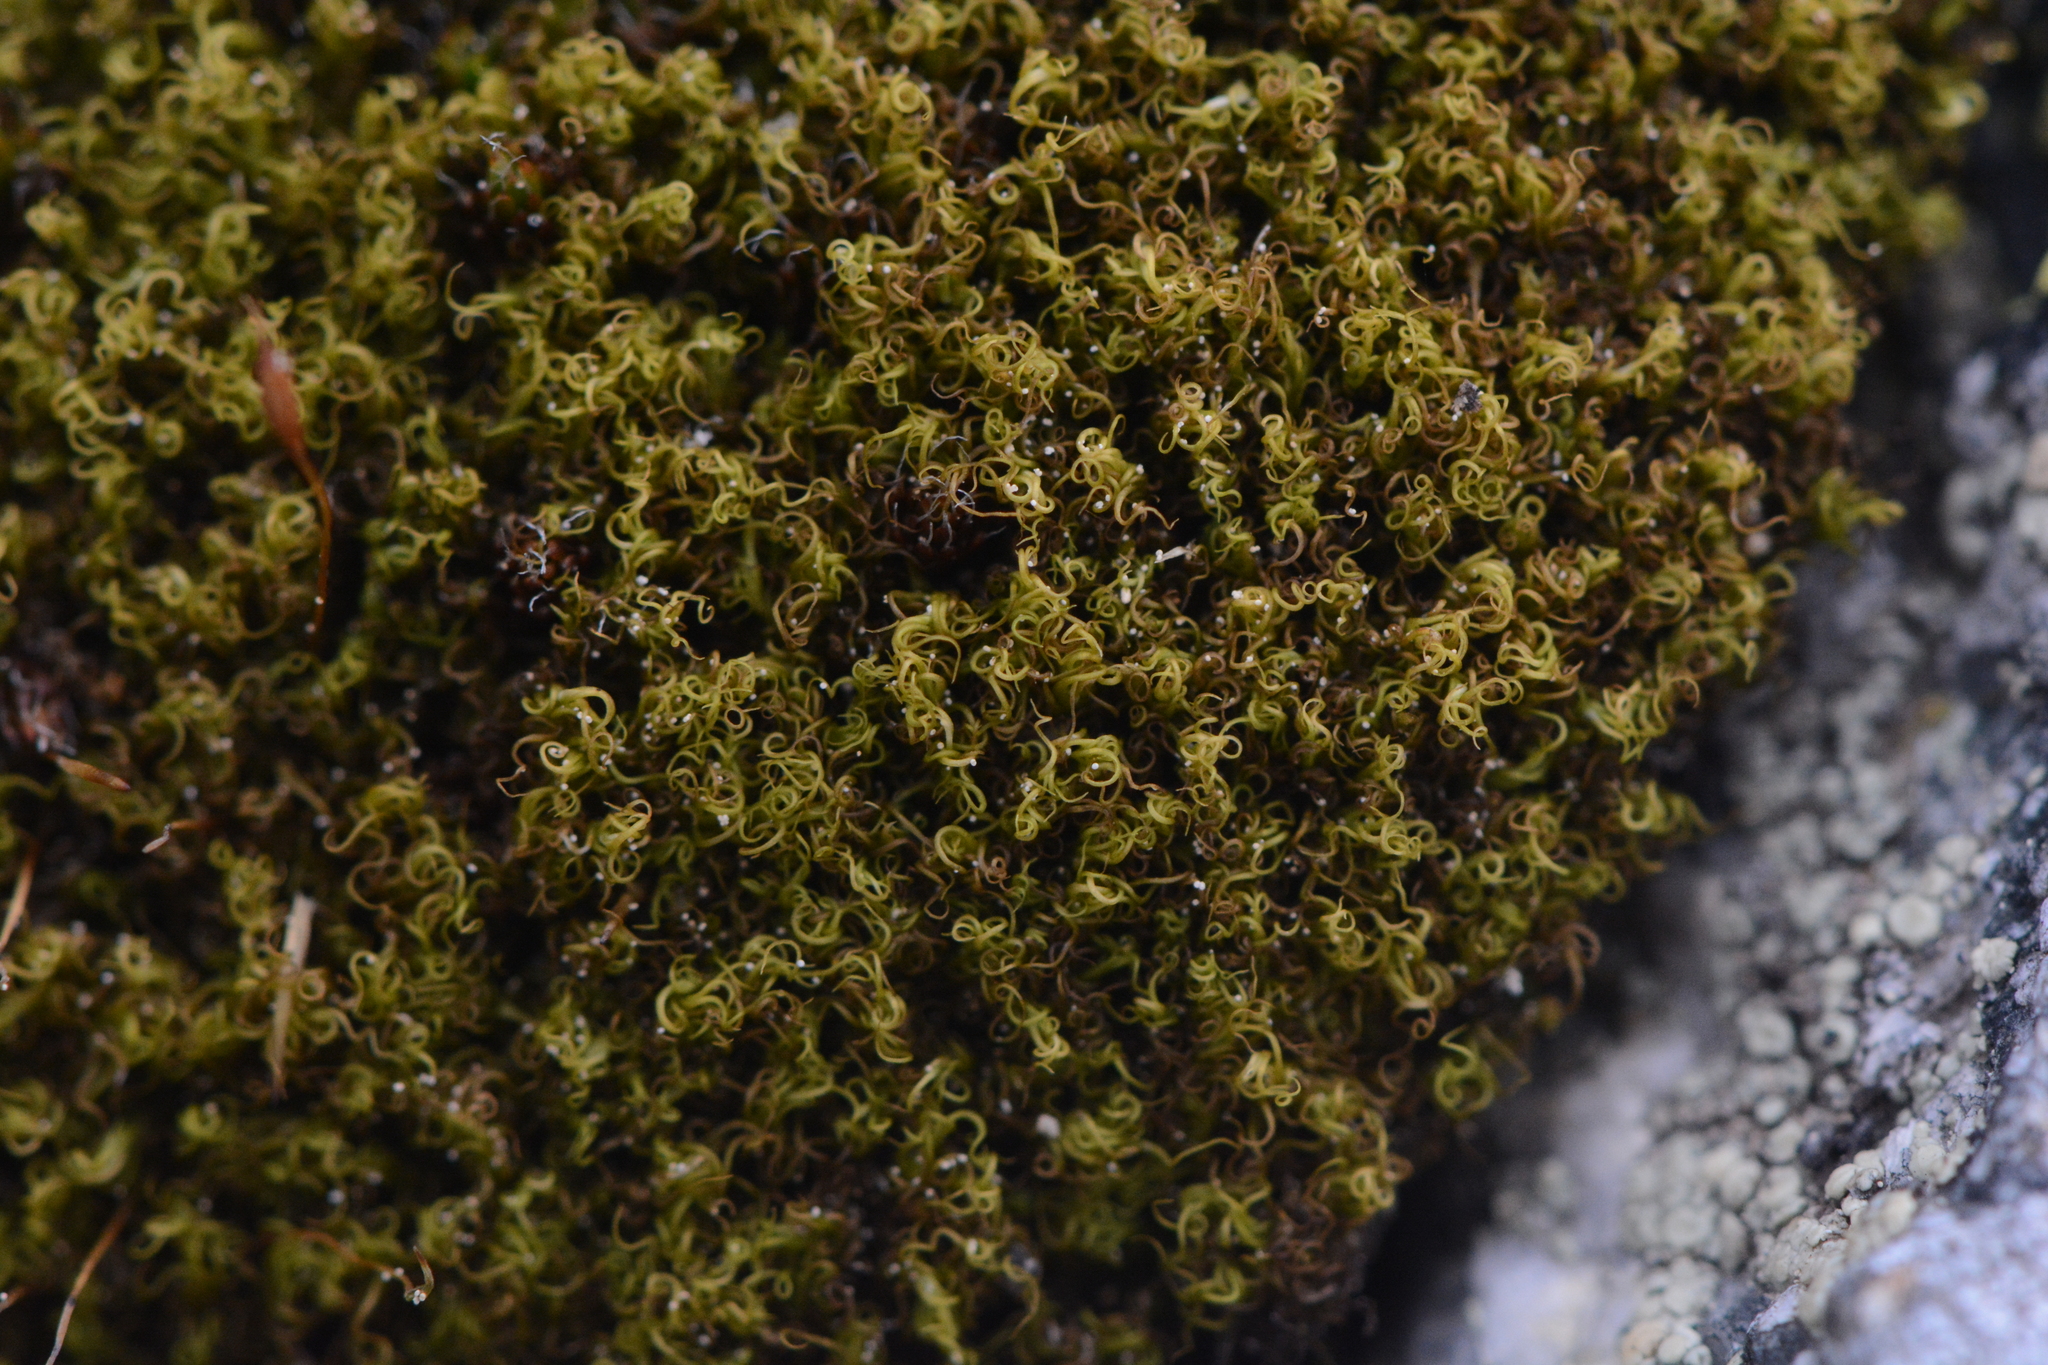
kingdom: Plantae
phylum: Bryophyta
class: Bryopsida
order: Scouleriales
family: Hymenolomataceae
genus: Hymenoloma
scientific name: Hymenoloma crispulum
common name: Mountain pincushion
